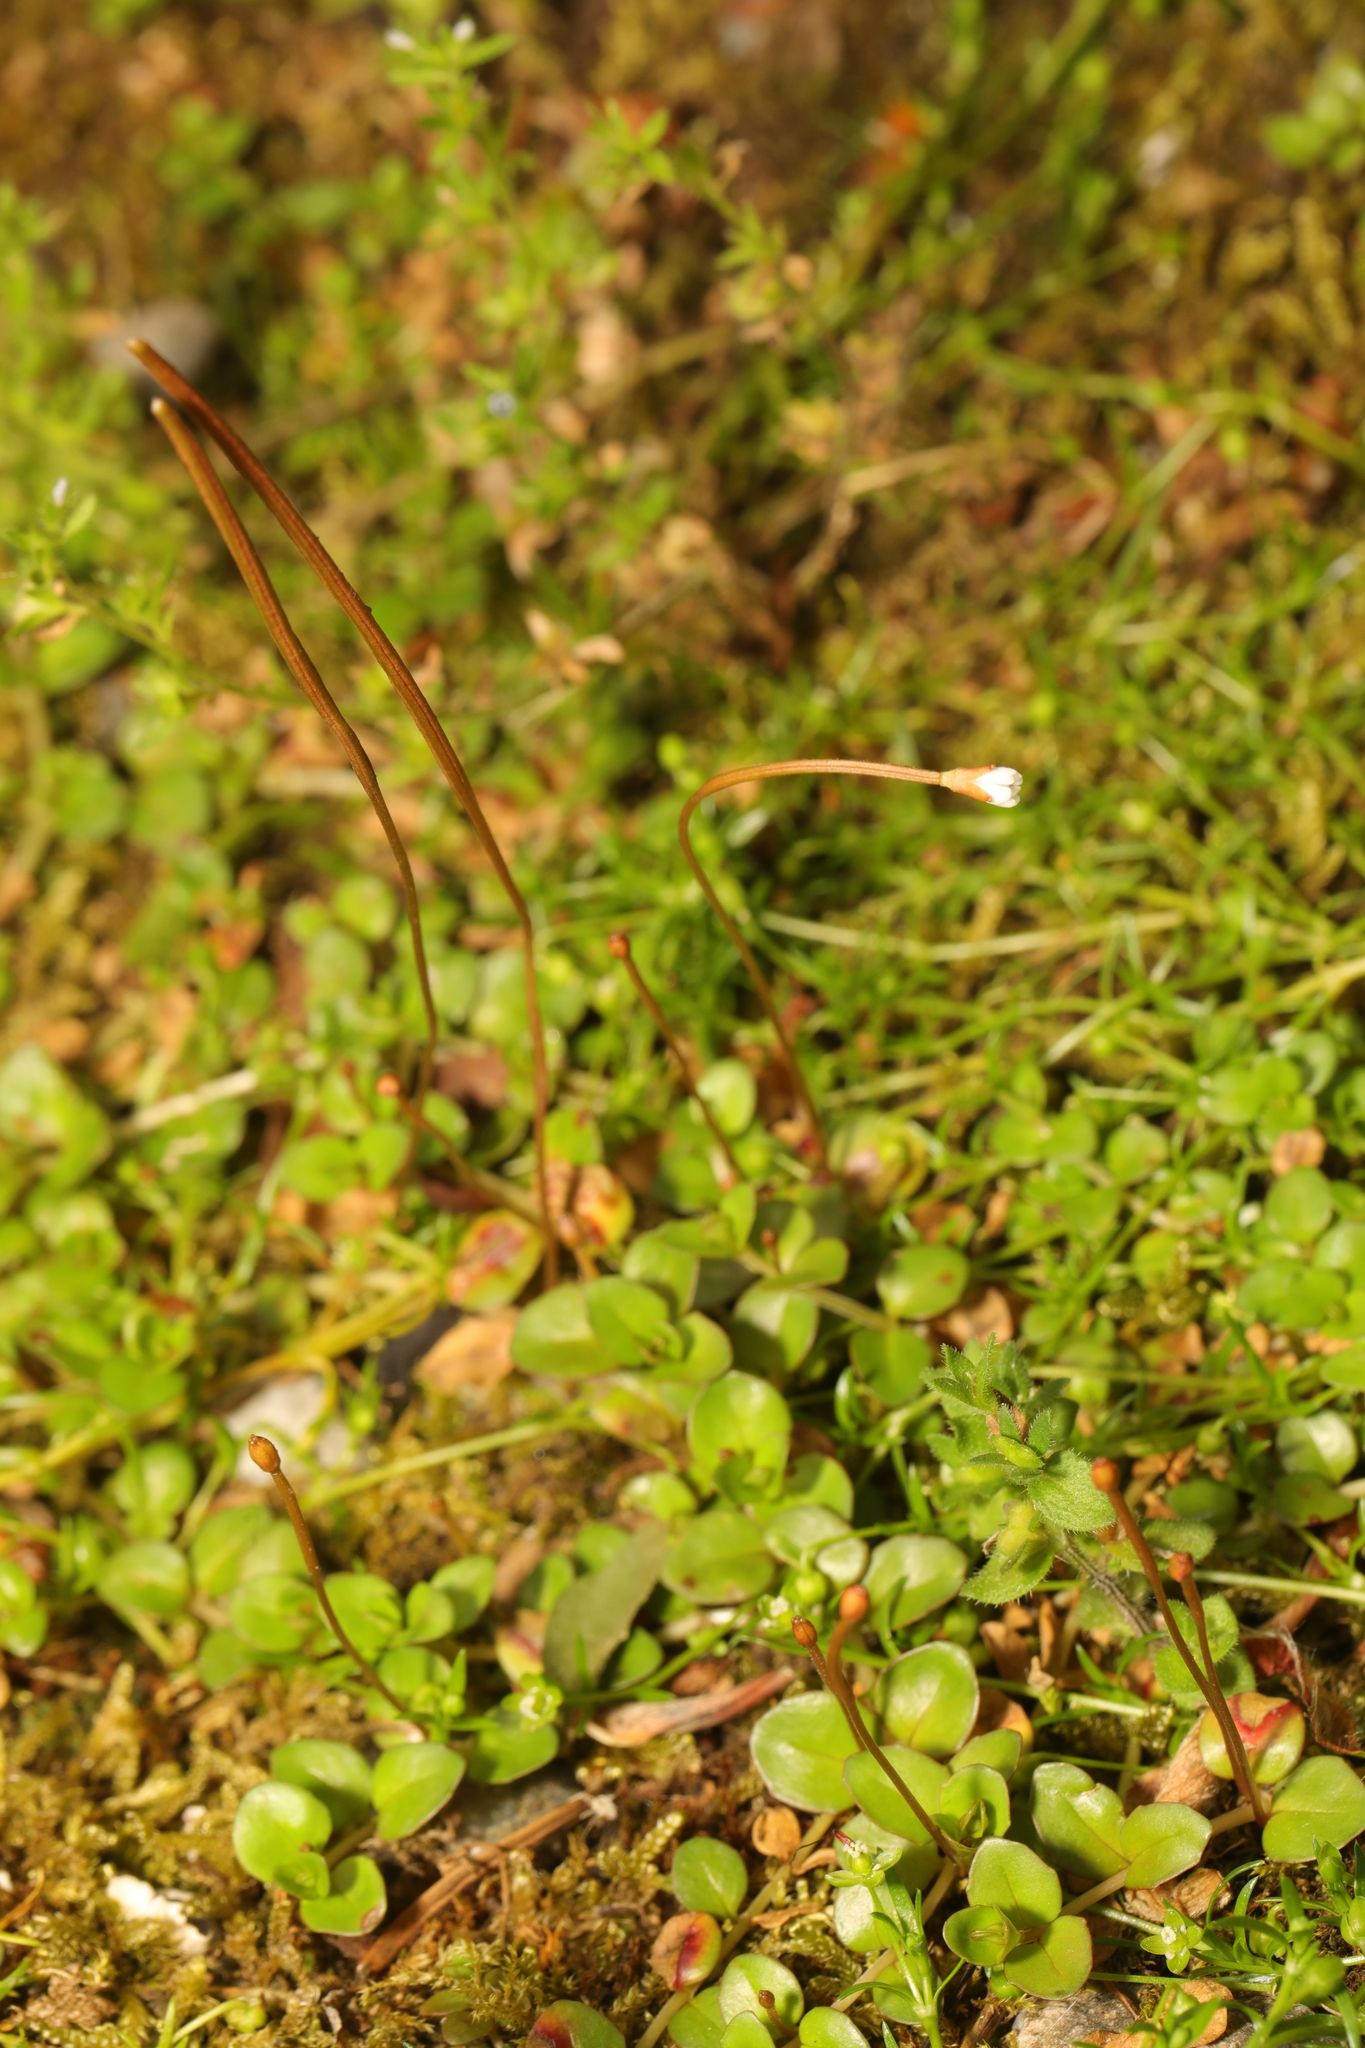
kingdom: Plantae
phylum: Tracheophyta
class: Magnoliopsida
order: Myrtales
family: Onagraceae
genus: Epilobium
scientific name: Epilobium brunnescens
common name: New zealand willowherb
